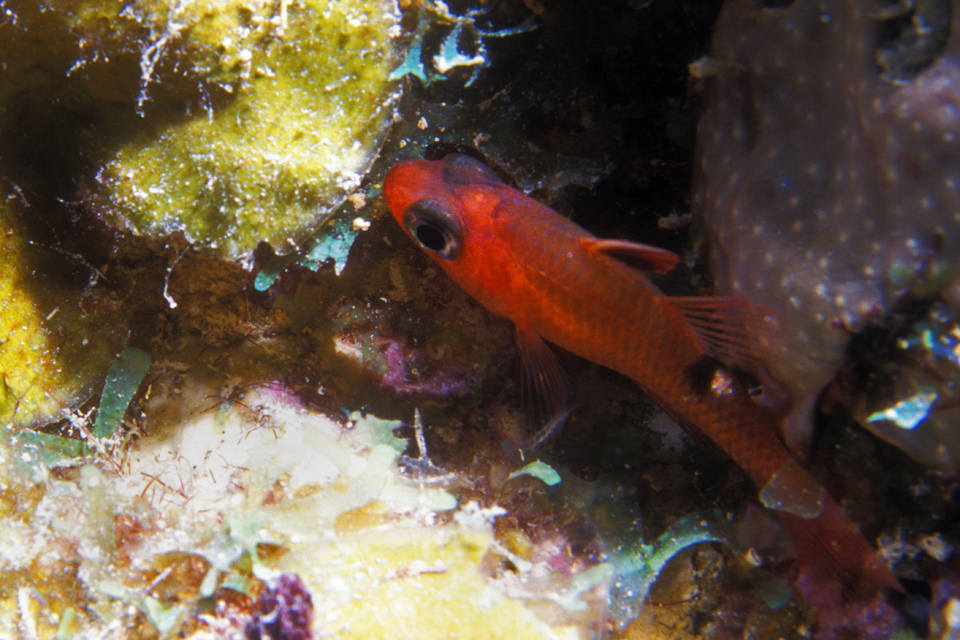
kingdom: Animalia
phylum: Chordata
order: Perciformes
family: Apogonidae
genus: Apogon
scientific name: Apogon lachneri
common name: Whitestar cardinalfish
